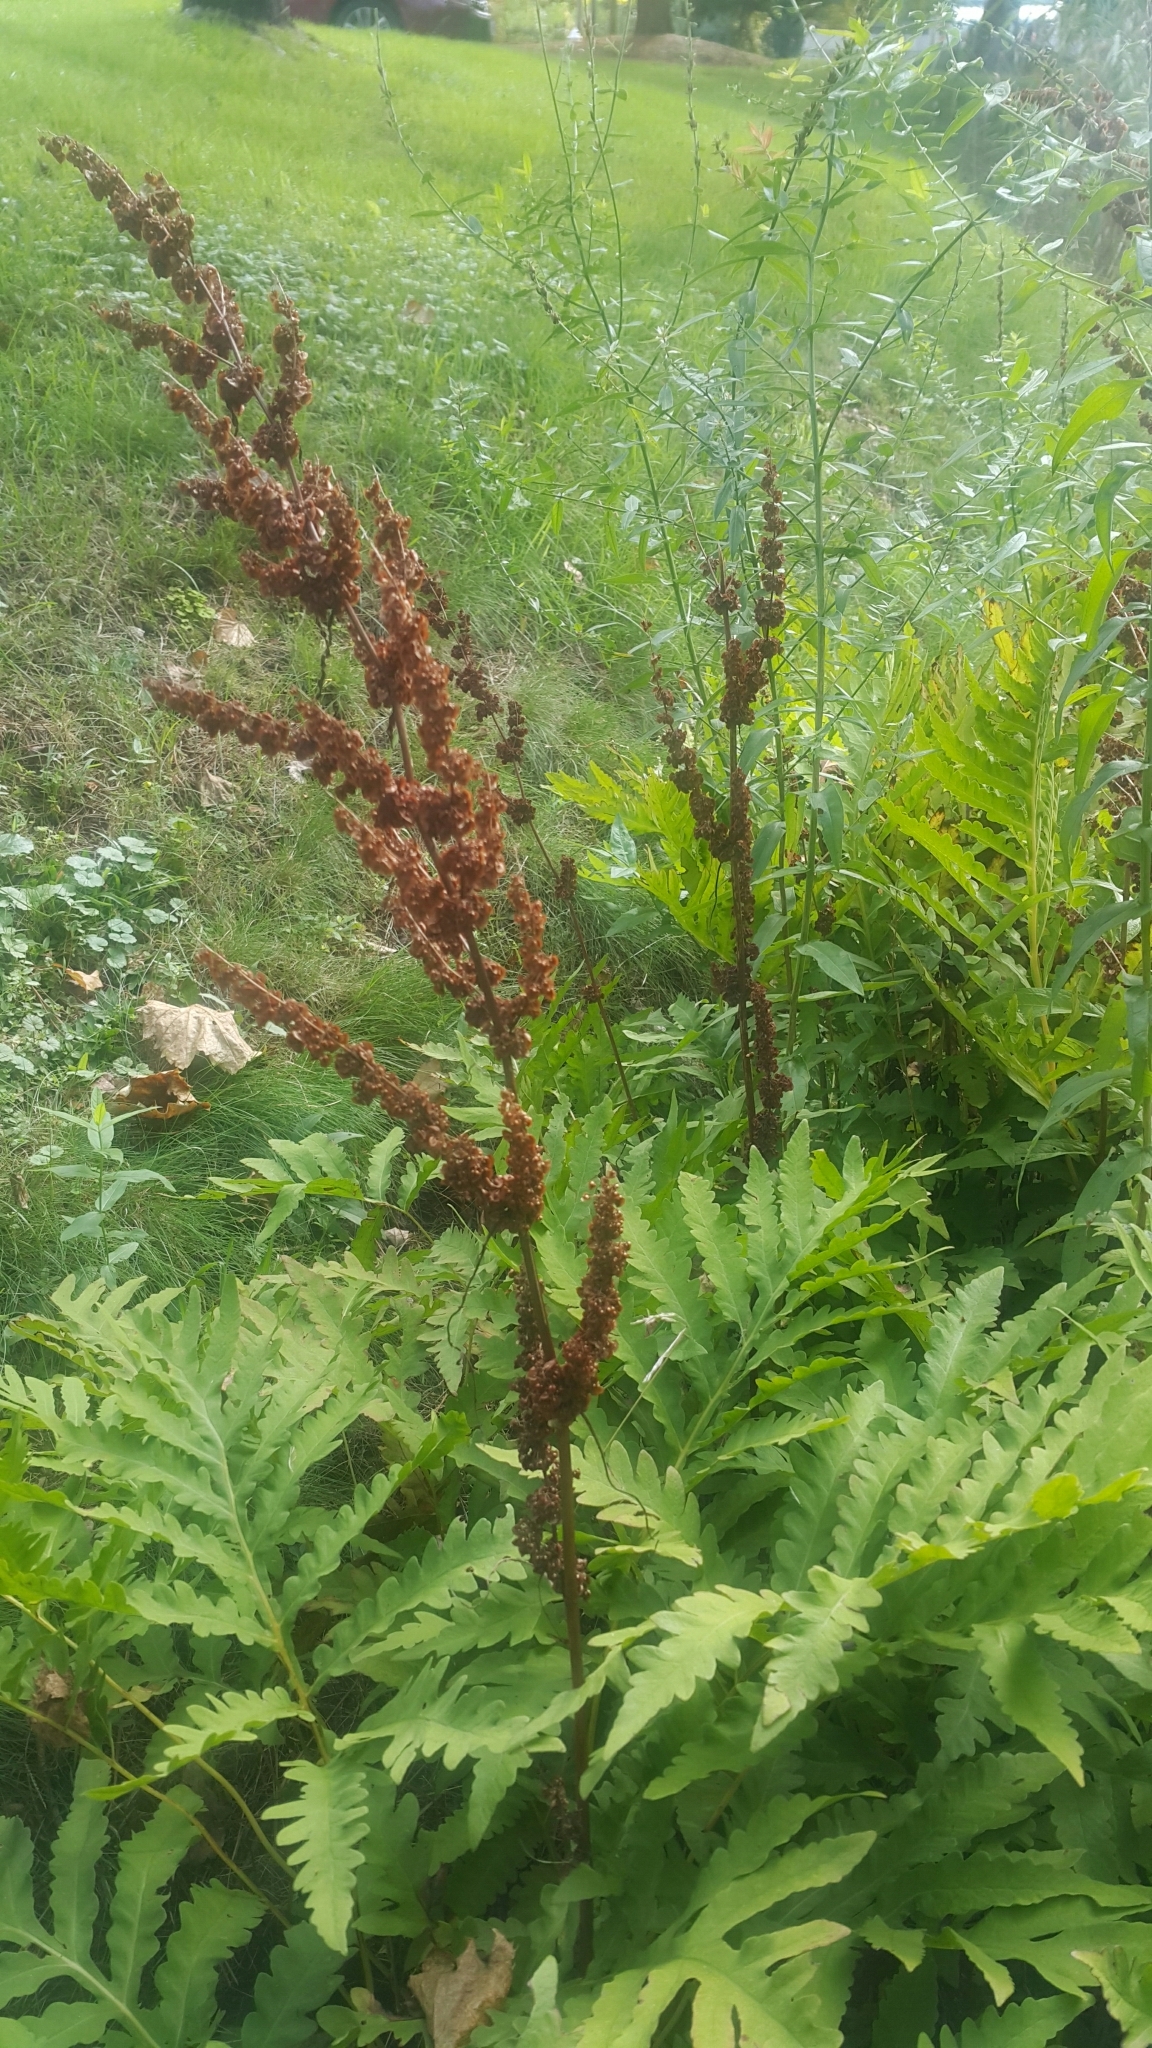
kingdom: Plantae
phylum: Tracheophyta
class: Polypodiopsida
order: Polypodiales
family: Onocleaceae
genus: Onoclea
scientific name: Onoclea sensibilis
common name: Sensitive fern
